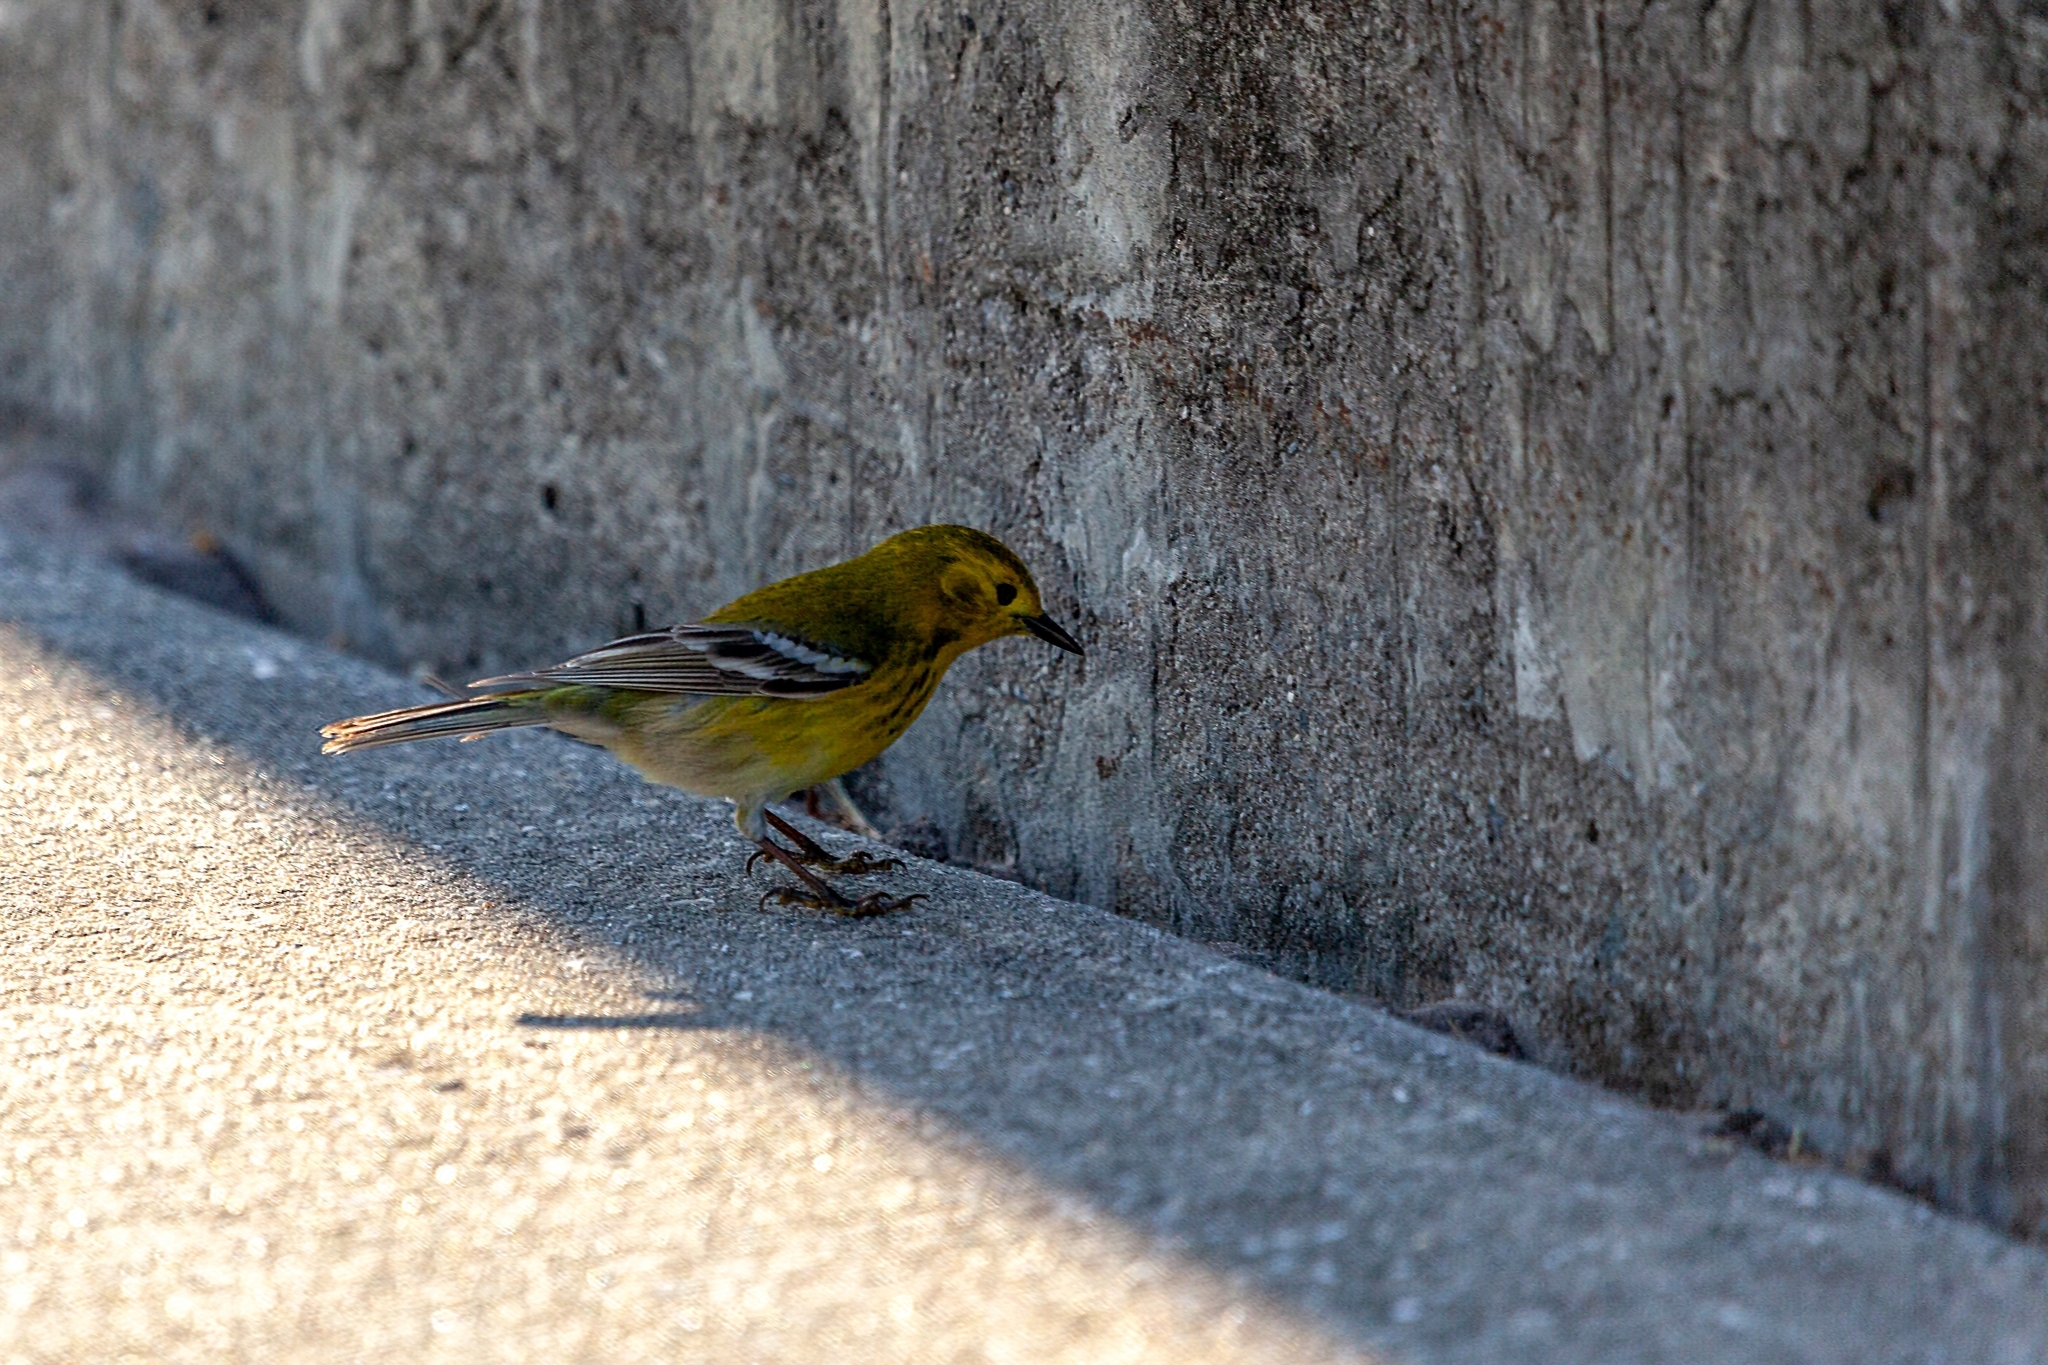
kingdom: Animalia
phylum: Chordata
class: Aves
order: Passeriformes
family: Parulidae
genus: Setophaga
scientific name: Setophaga pinus
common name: Pine warbler
